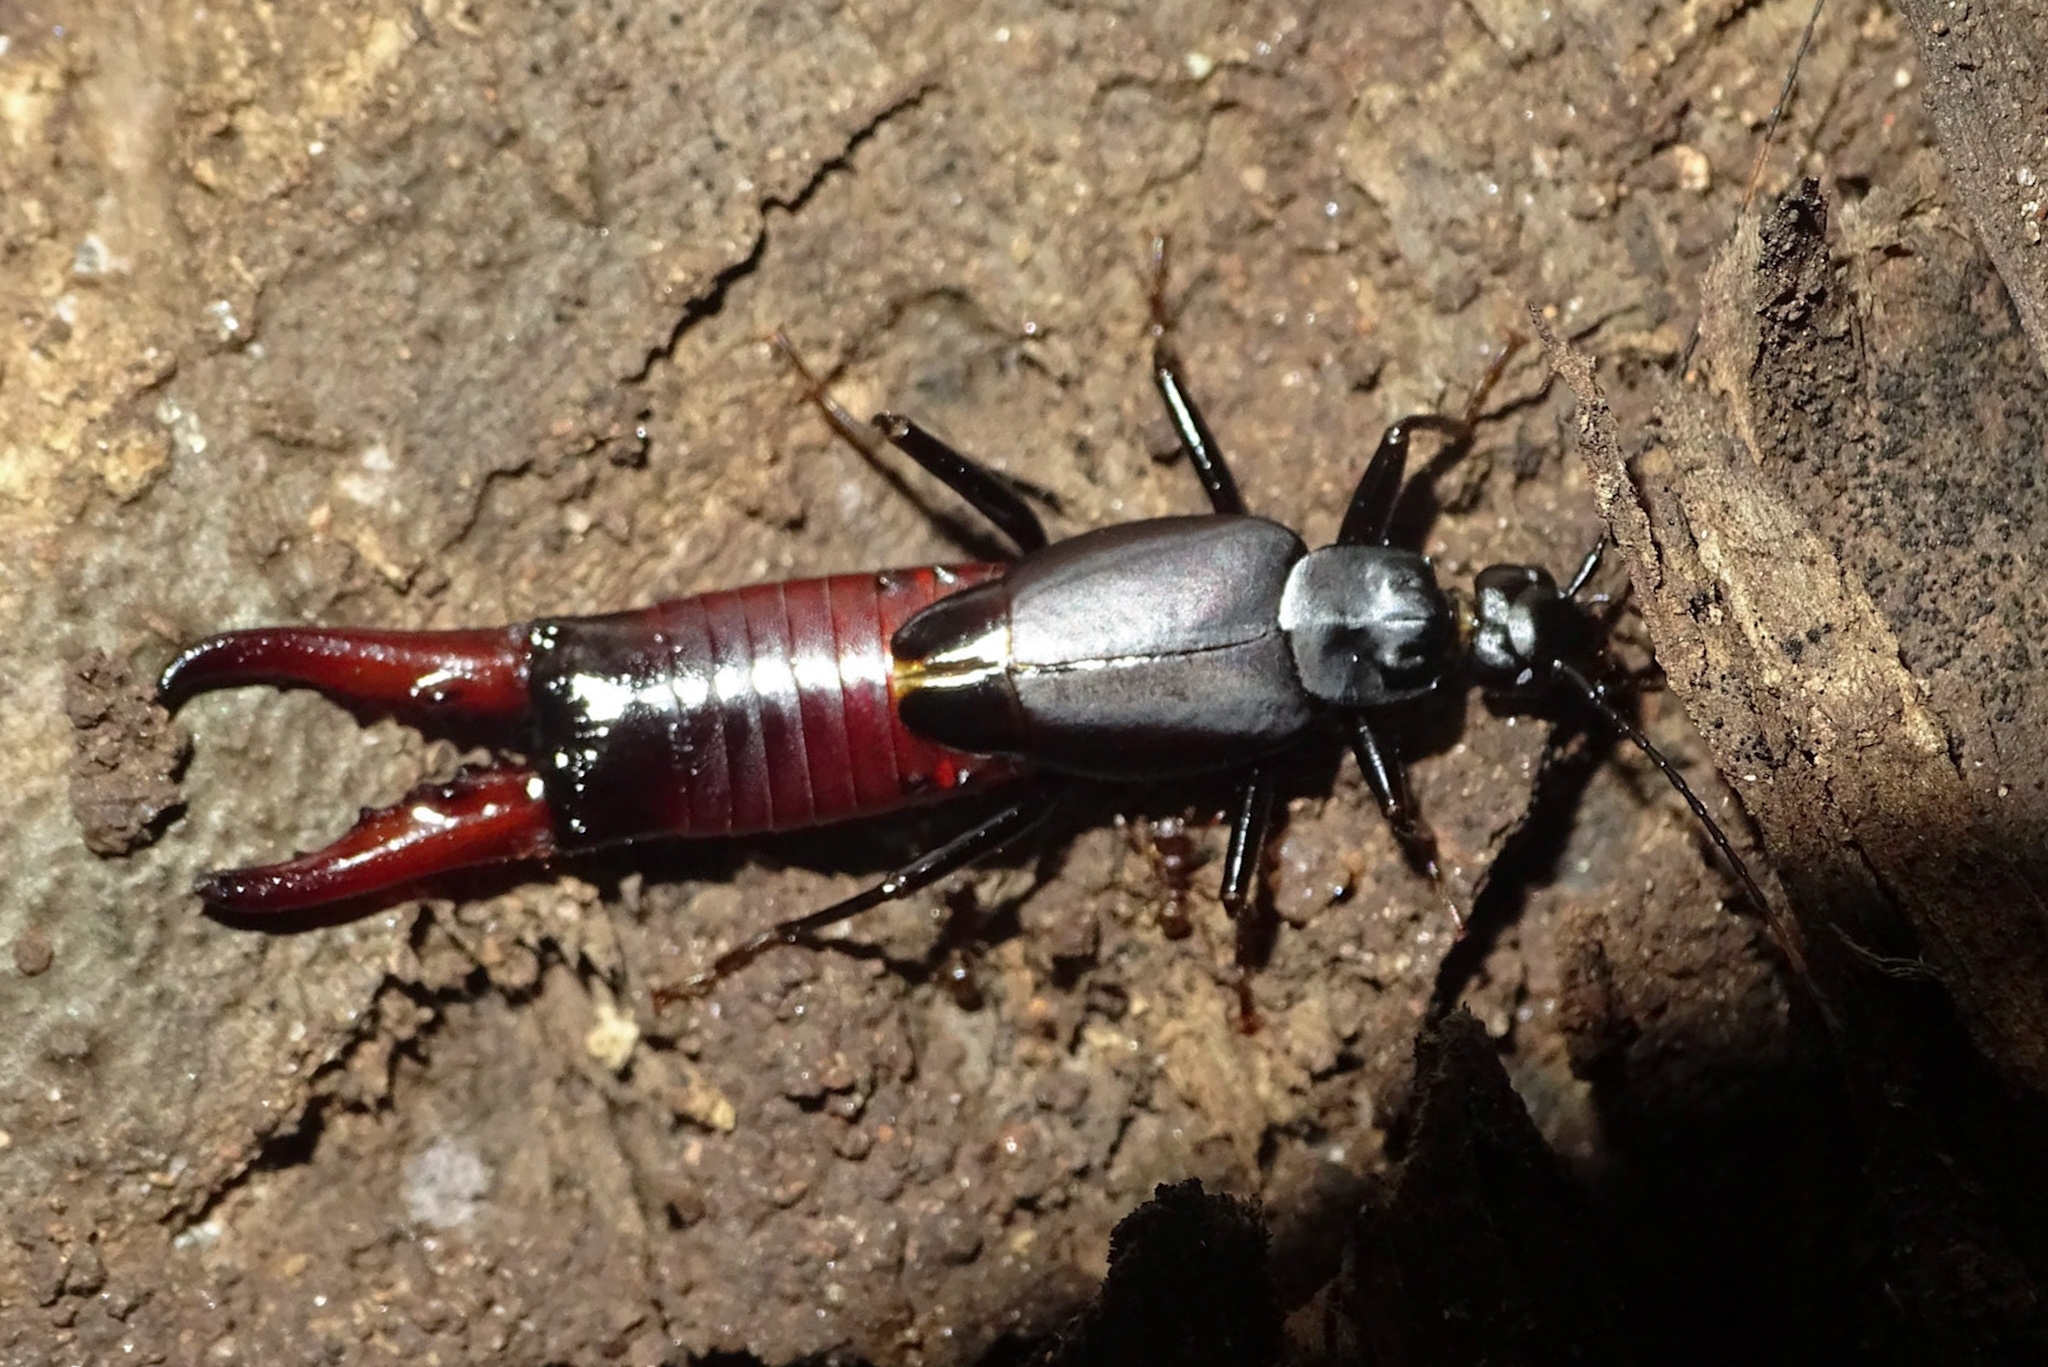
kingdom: Animalia
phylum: Arthropoda
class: Insecta
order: Dermaptera
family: Chelisochidae
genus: Adiathetus
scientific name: Adiathetus tenebrator
